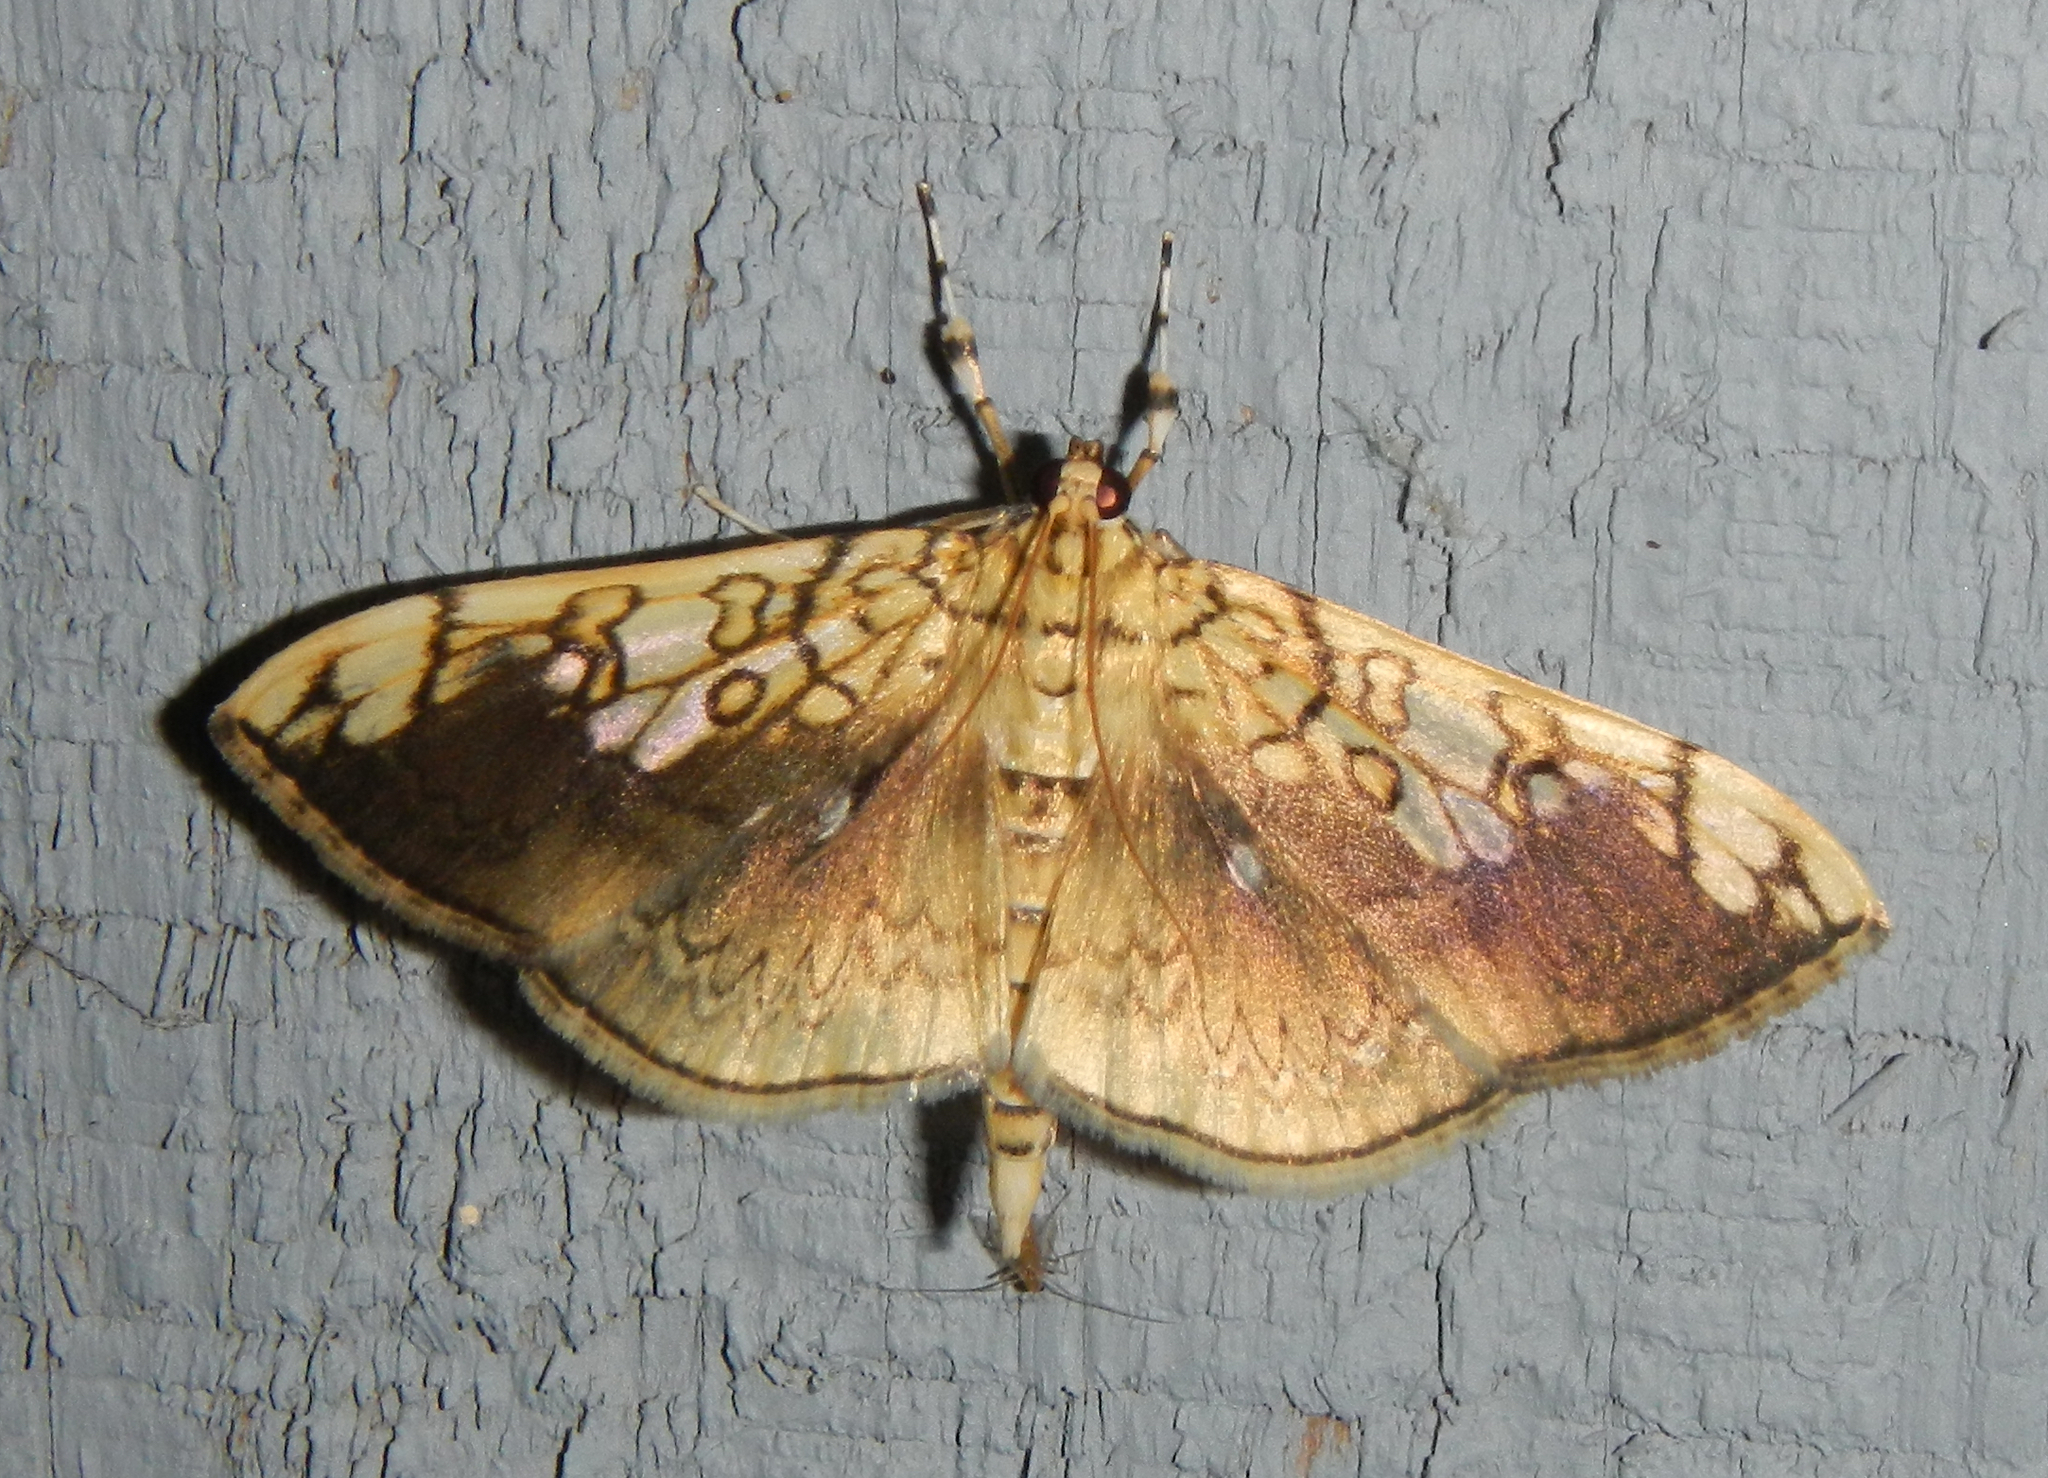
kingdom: Animalia
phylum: Arthropoda
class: Insecta
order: Lepidoptera
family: Crambidae
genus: Pantographa
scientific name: Pantographa limata
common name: Basswood leafroller moth
